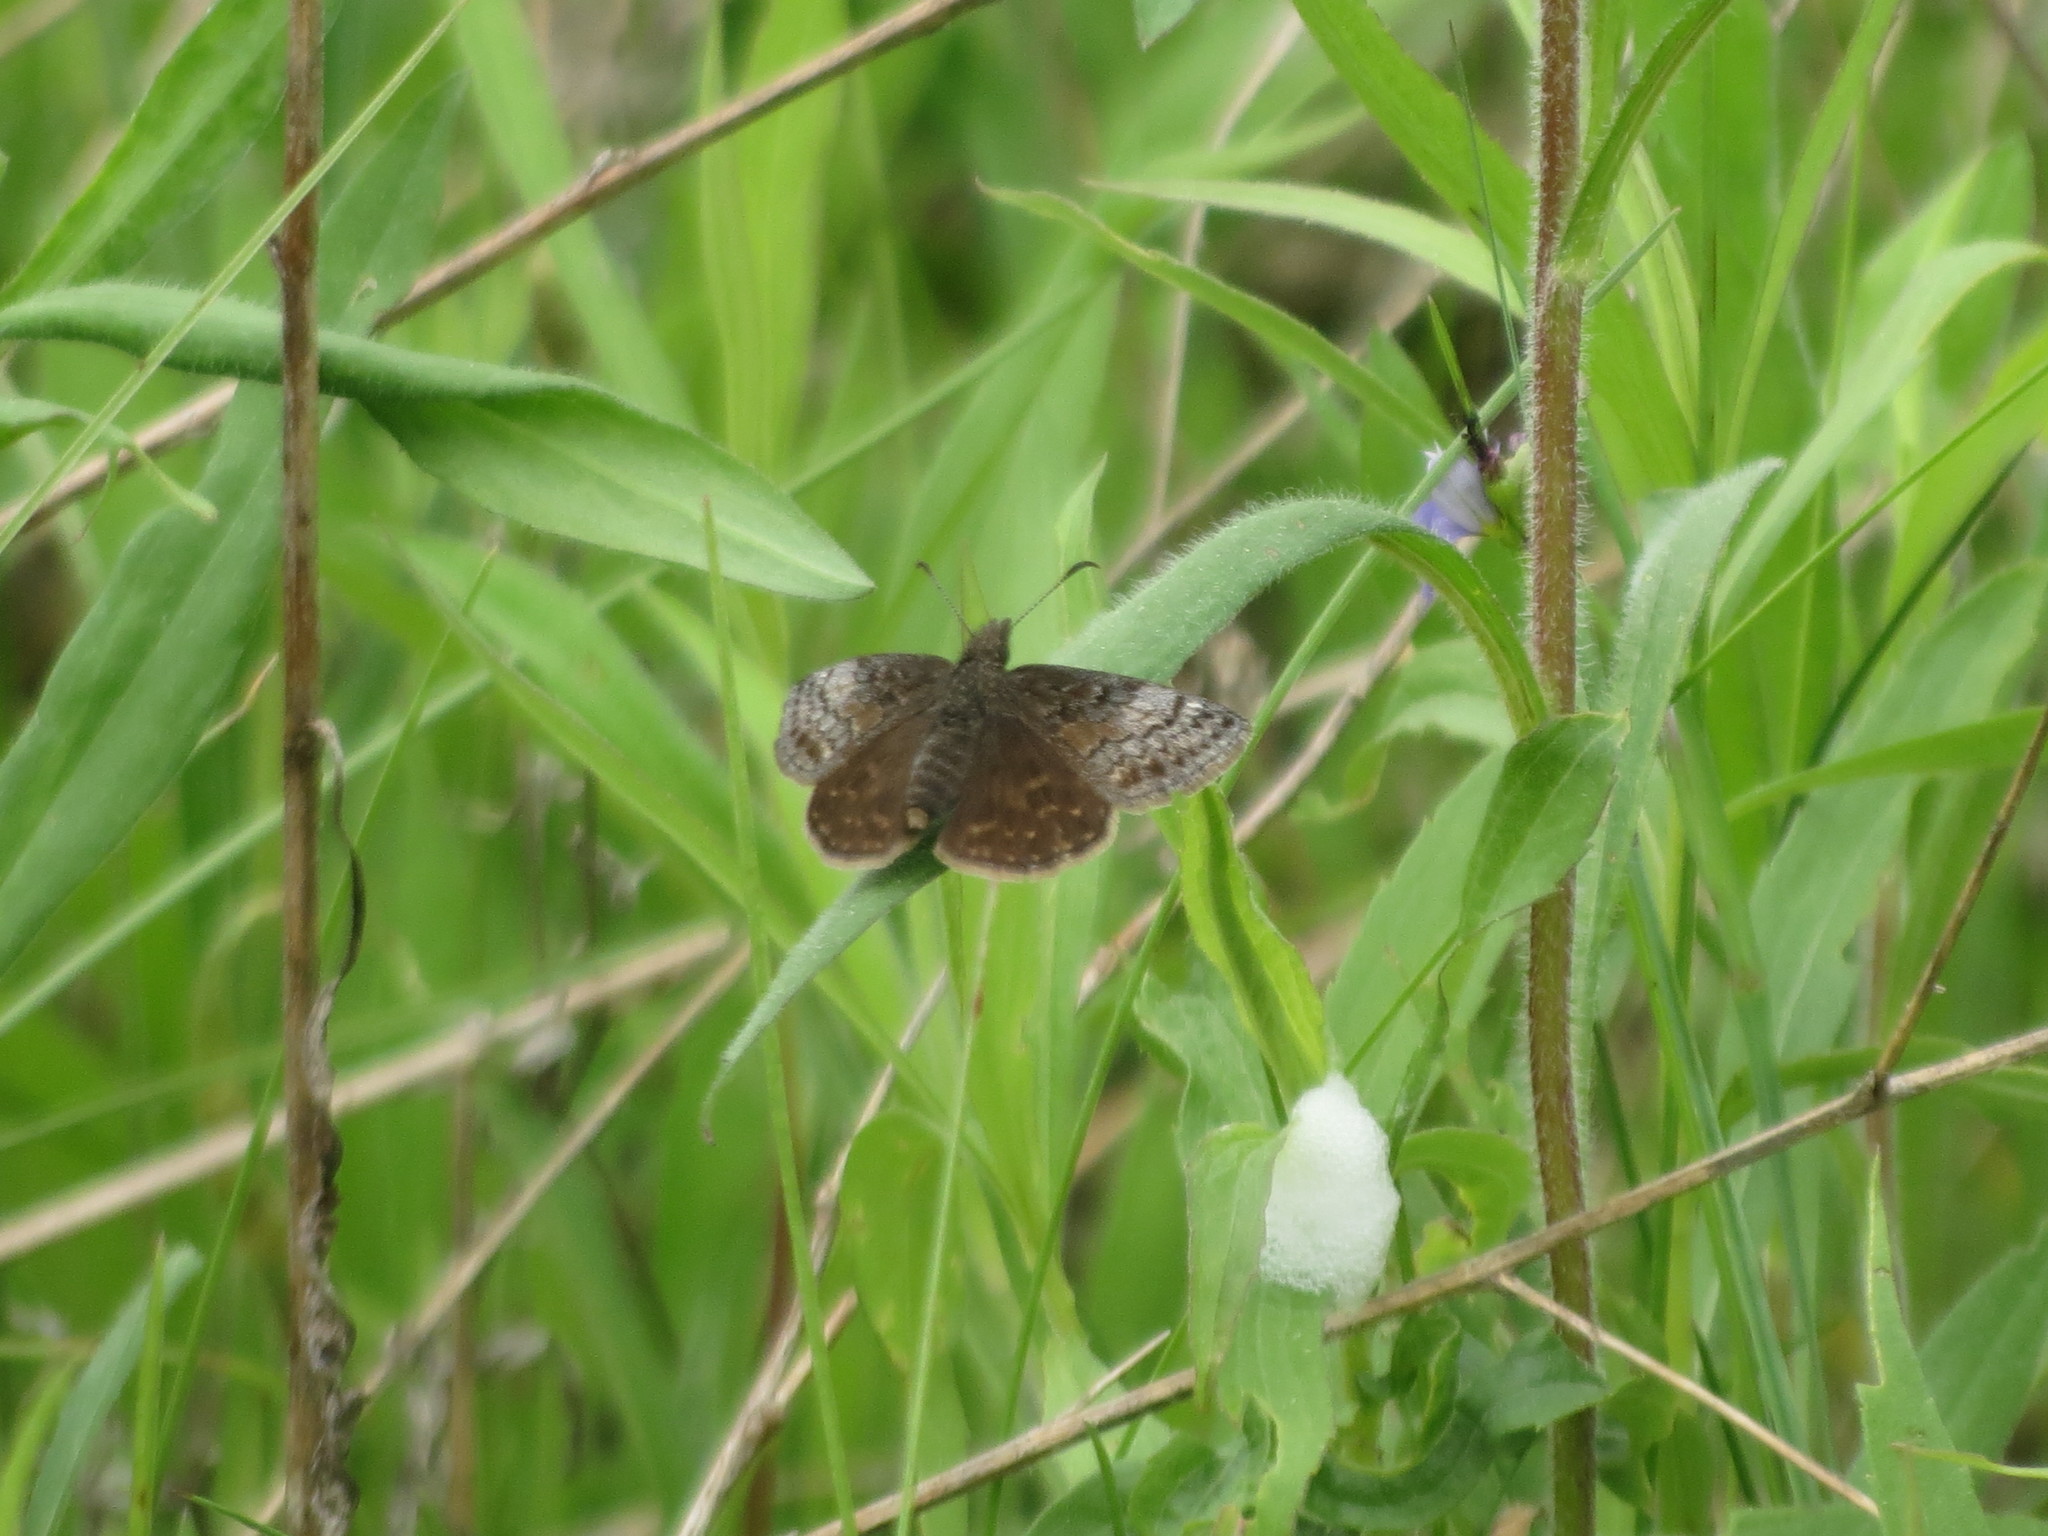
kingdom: Animalia
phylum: Arthropoda
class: Insecta
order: Lepidoptera
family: Hesperiidae
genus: Erynnis
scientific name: Erynnis icelus
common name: Dreamy duskywing
